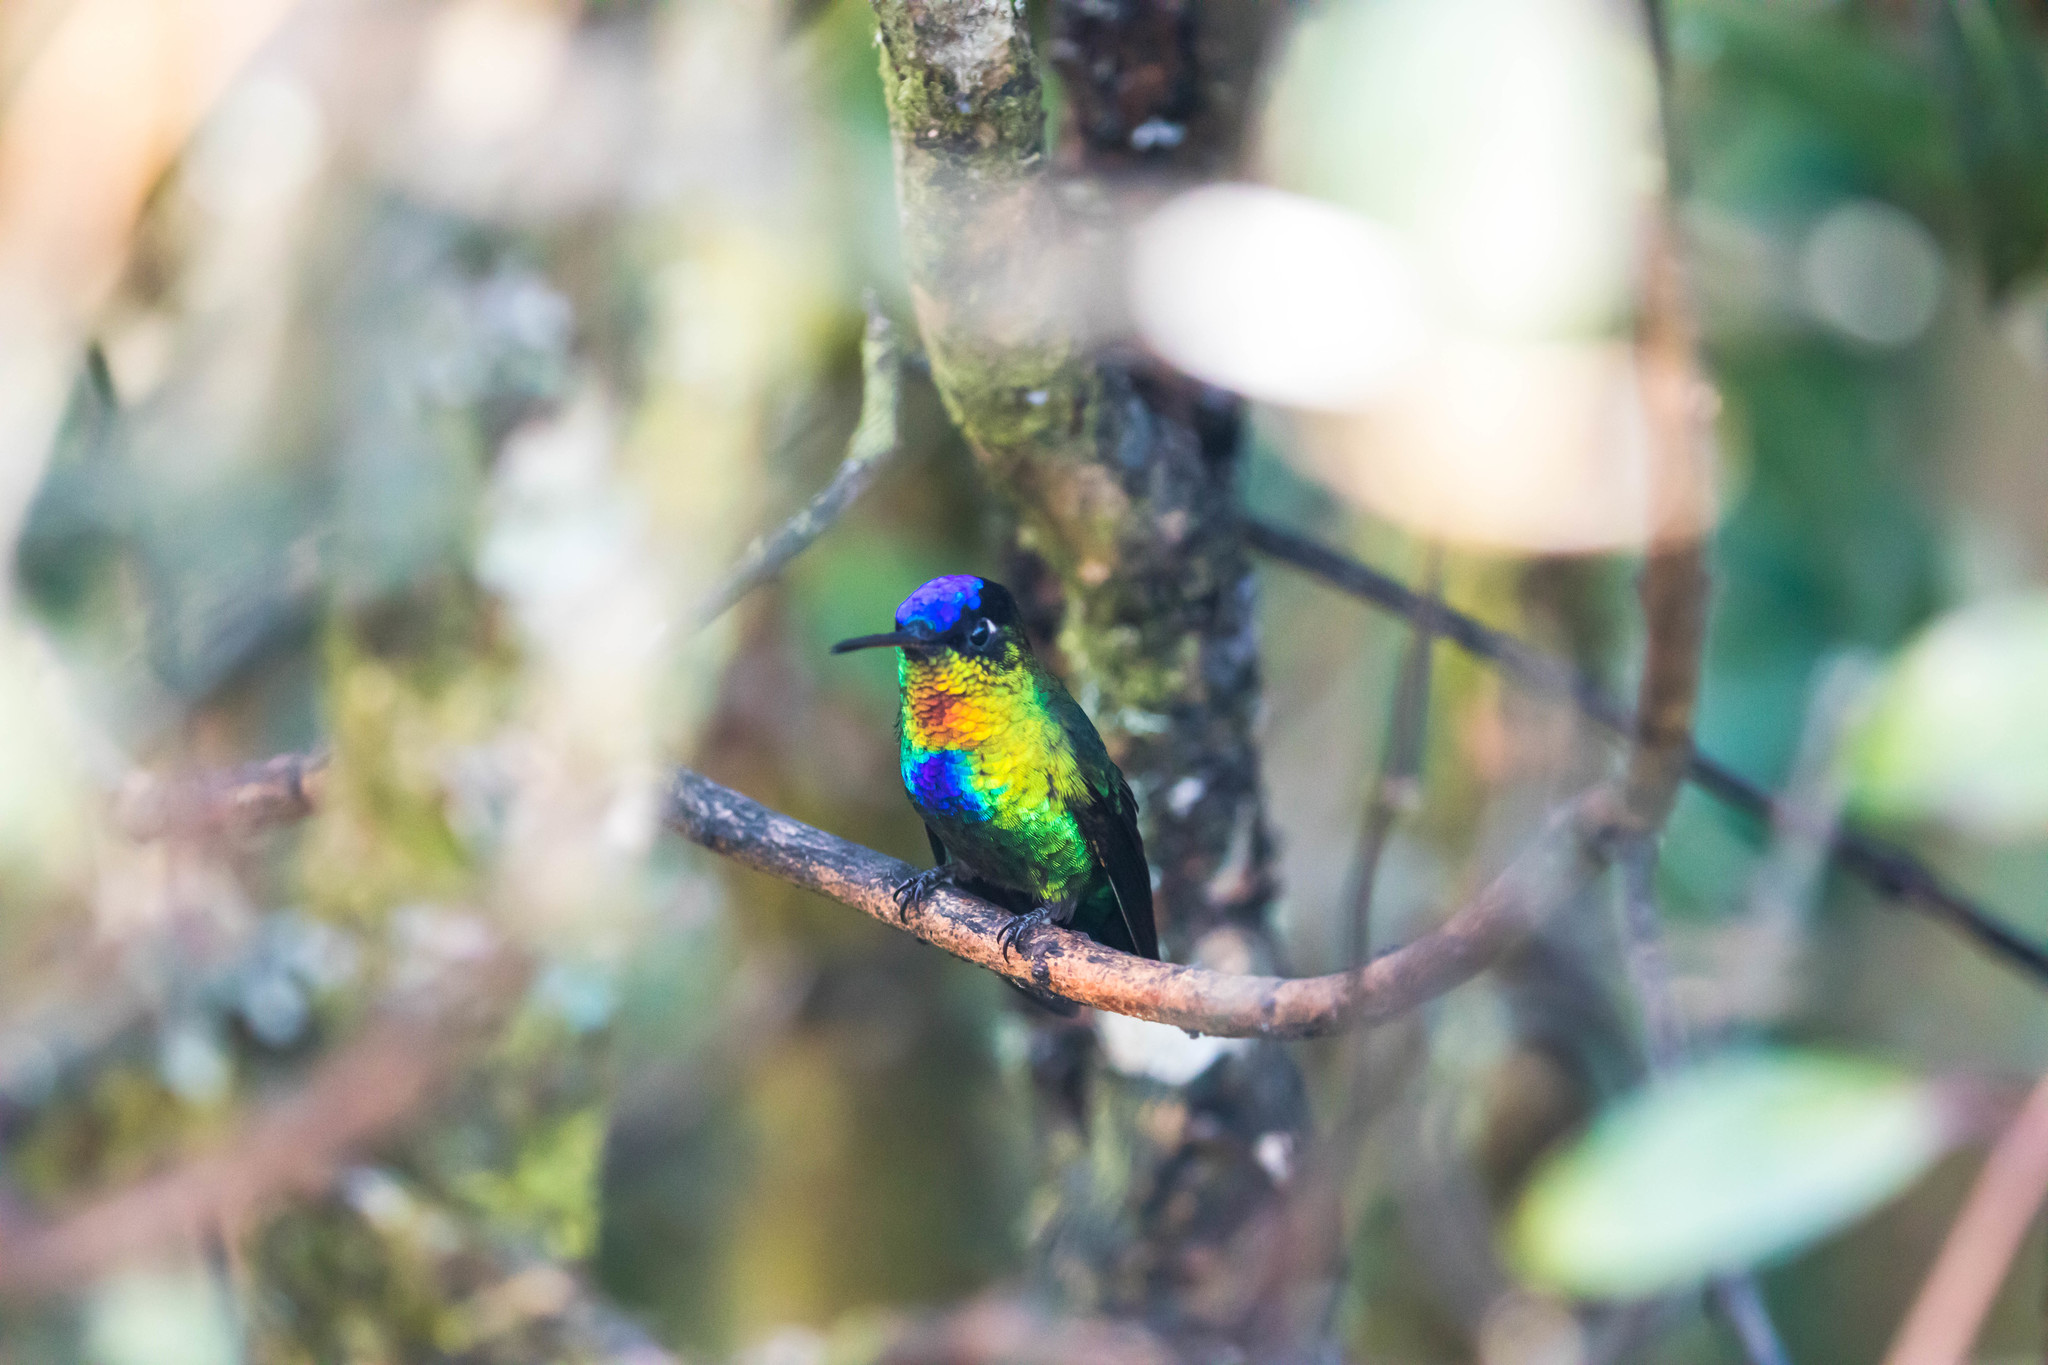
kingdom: Animalia
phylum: Chordata
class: Aves
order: Apodiformes
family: Trochilidae
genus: Panterpe
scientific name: Panterpe insignis
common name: Fiery-throated hummingbird
